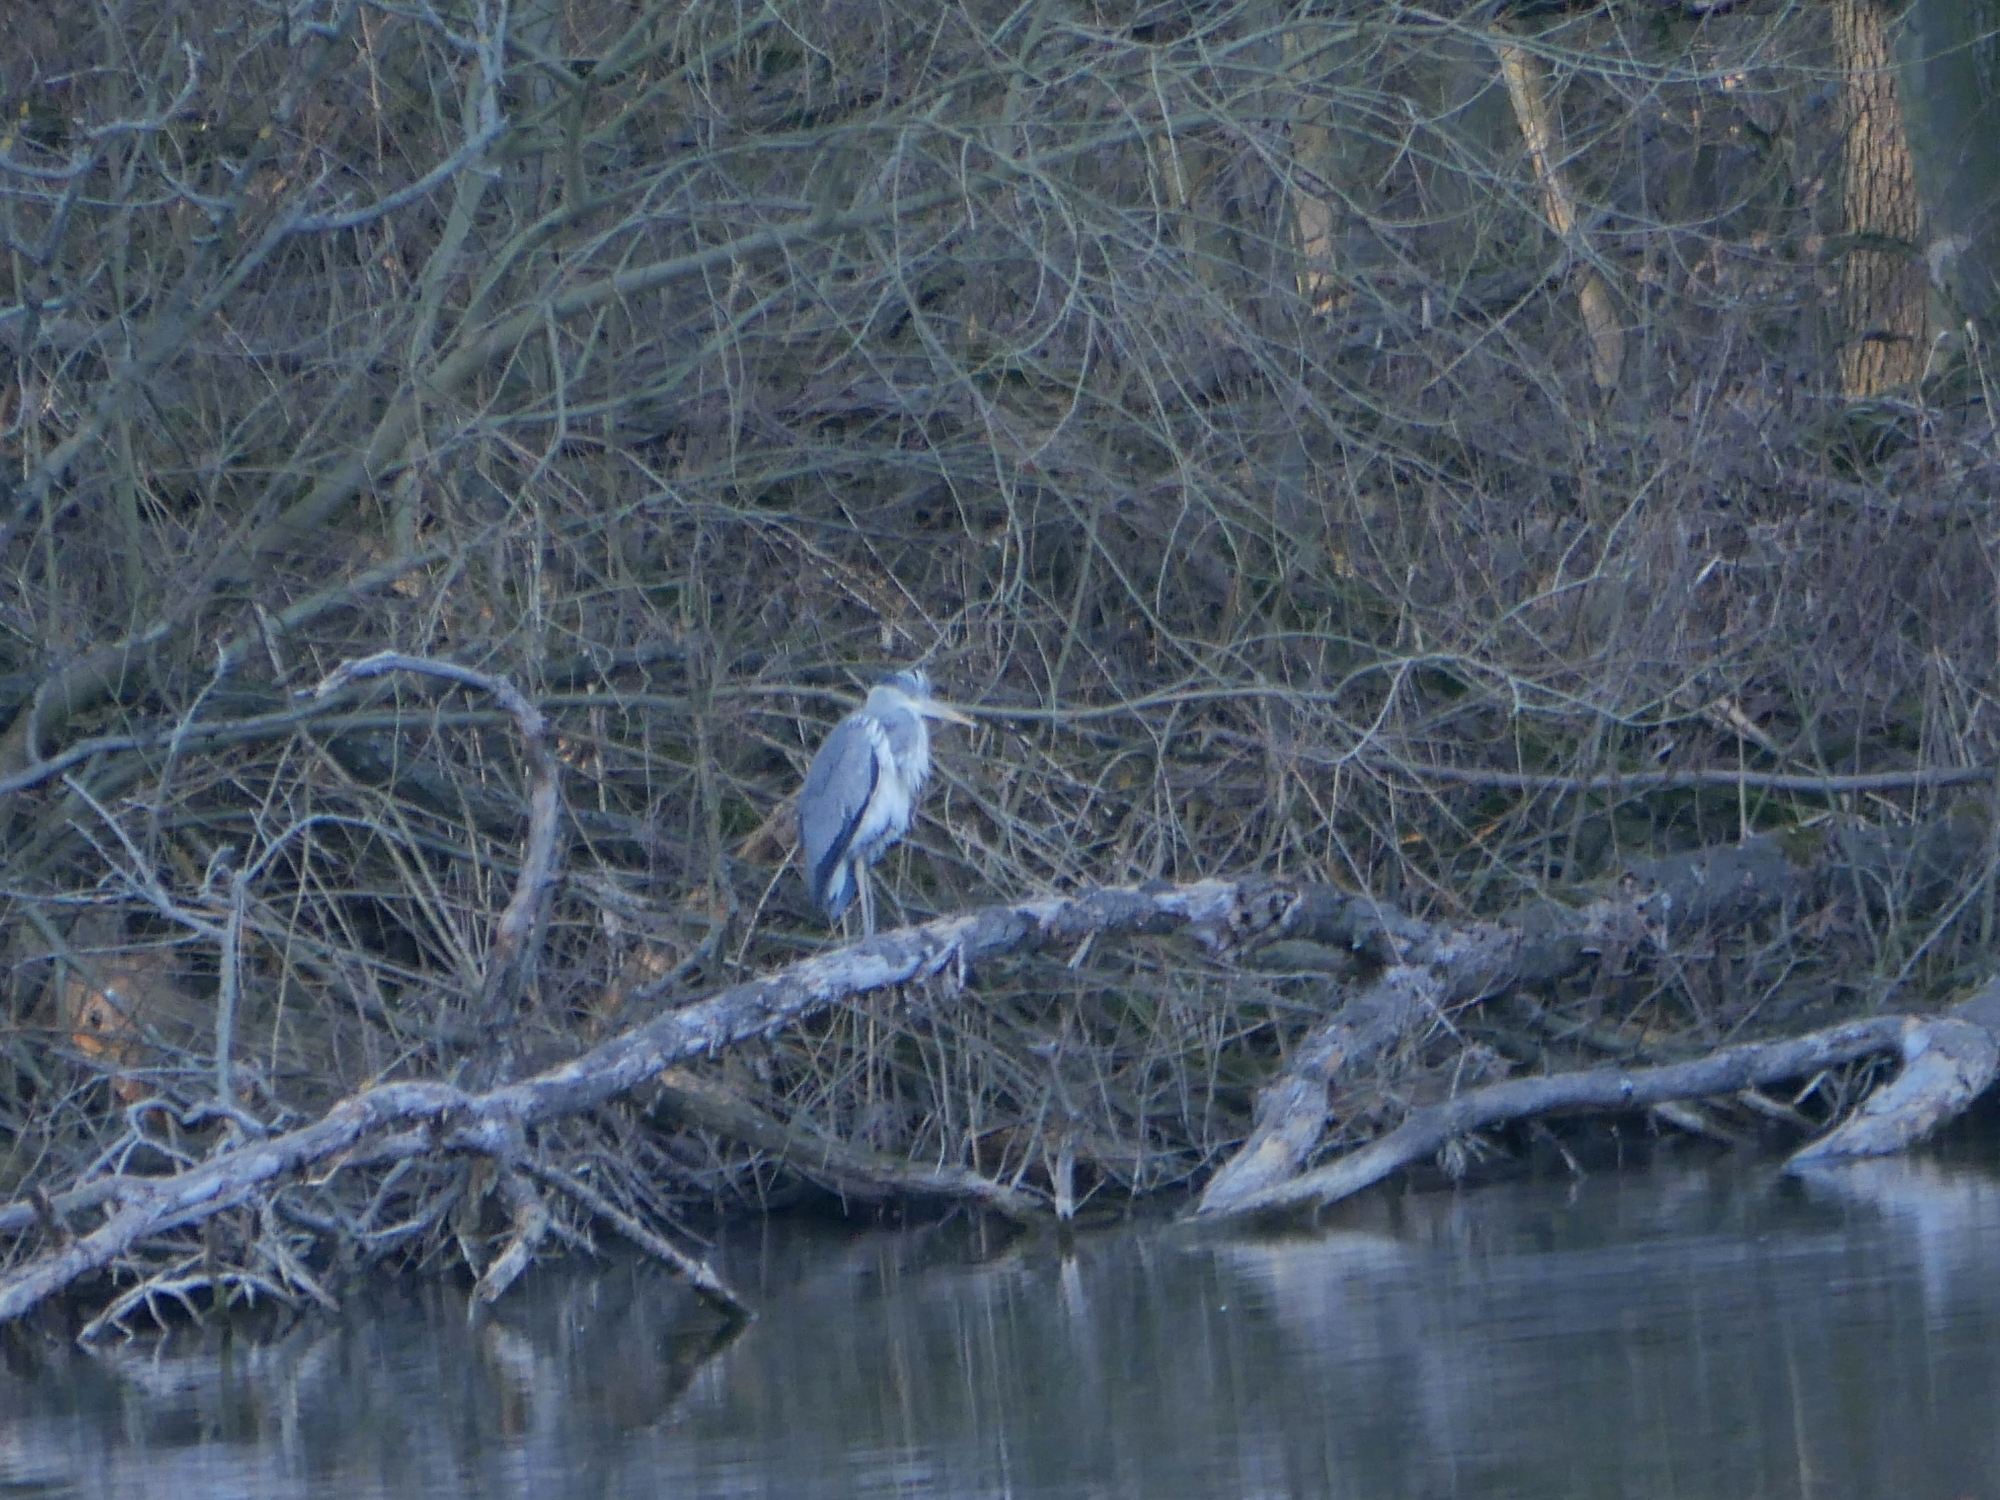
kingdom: Animalia
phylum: Chordata
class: Aves
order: Pelecaniformes
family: Ardeidae
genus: Ardea
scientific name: Ardea cinerea
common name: Grey heron
